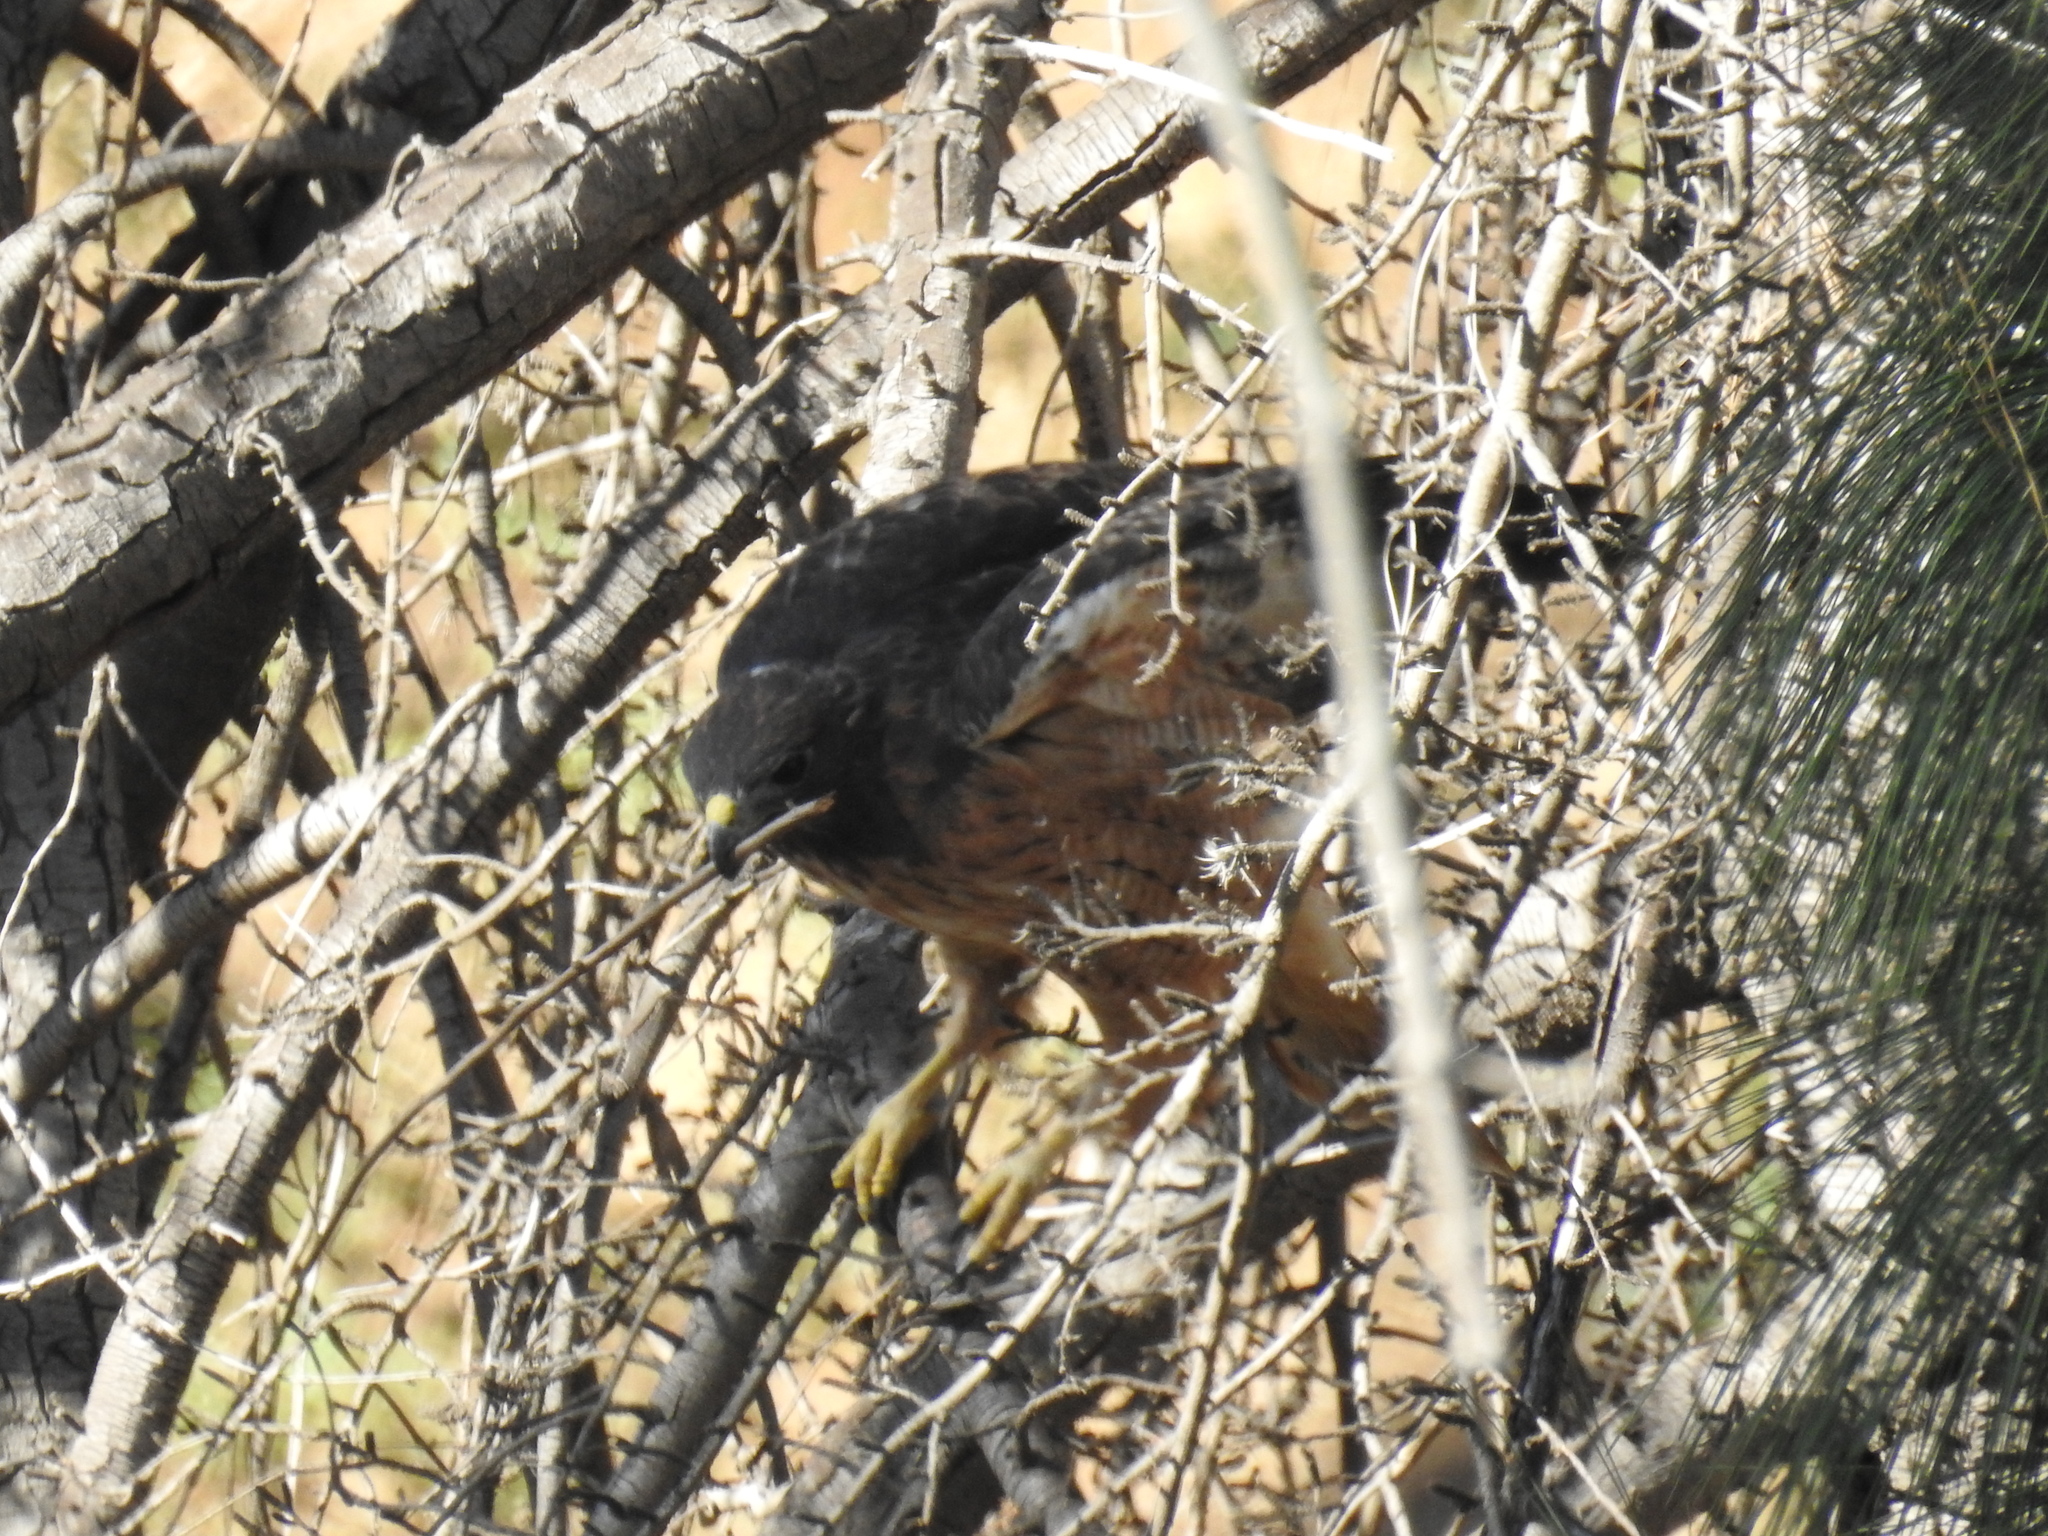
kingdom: Animalia
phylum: Chordata
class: Aves
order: Accipitriformes
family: Accipitridae
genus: Buteo
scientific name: Buteo jamaicensis
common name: Red-tailed hawk
